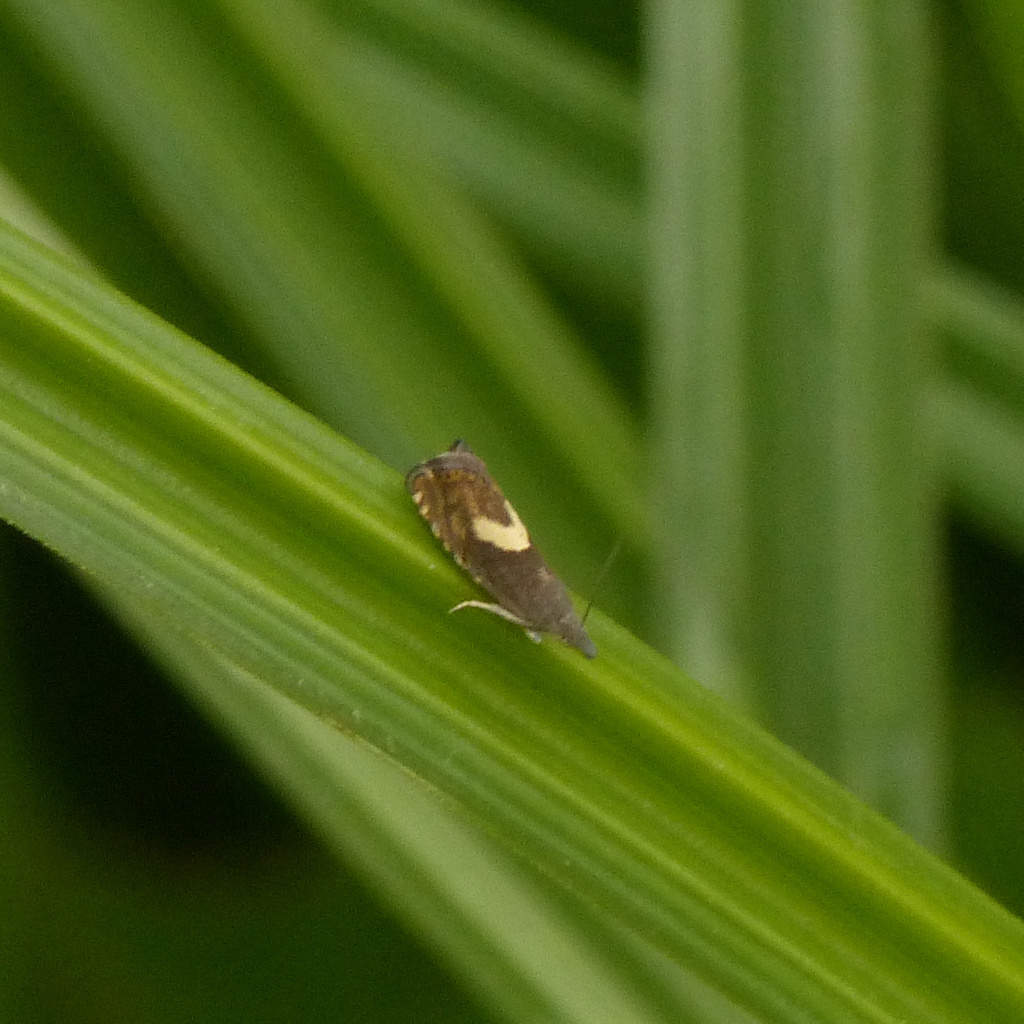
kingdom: Animalia
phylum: Arthropoda
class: Insecta
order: Lepidoptera
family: Tortricidae
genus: Dichrorampha
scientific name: Dichrorampha petiverella
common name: Common drill
